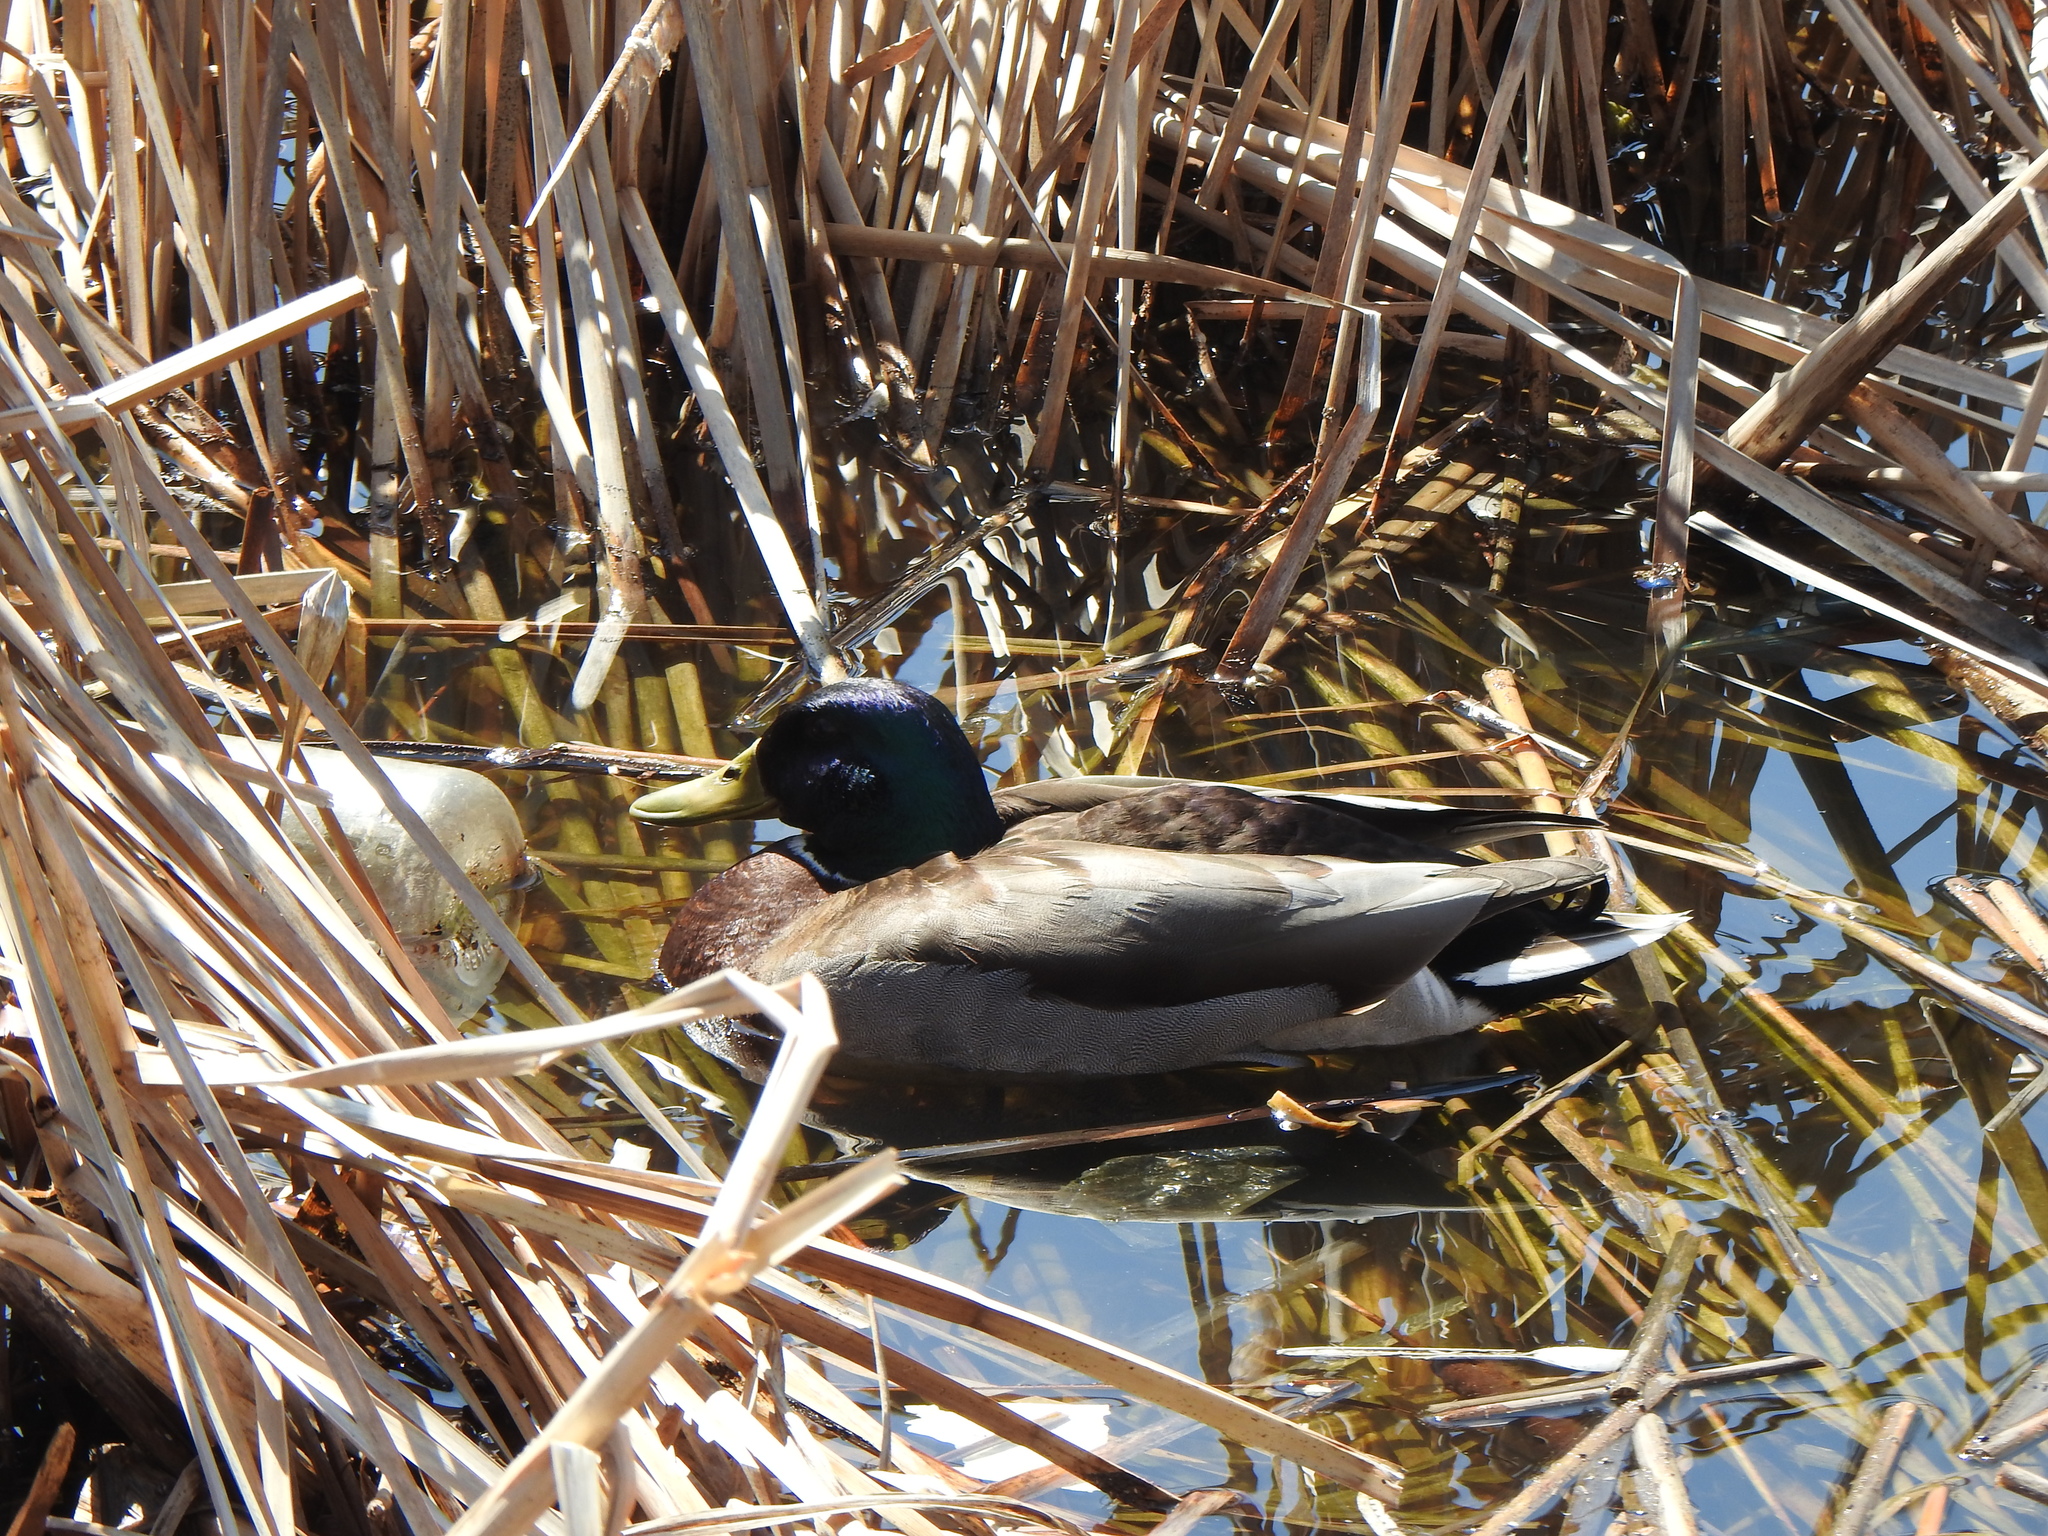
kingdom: Animalia
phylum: Chordata
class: Aves
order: Anseriformes
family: Anatidae
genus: Anas
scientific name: Anas platyrhynchos
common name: Mallard
